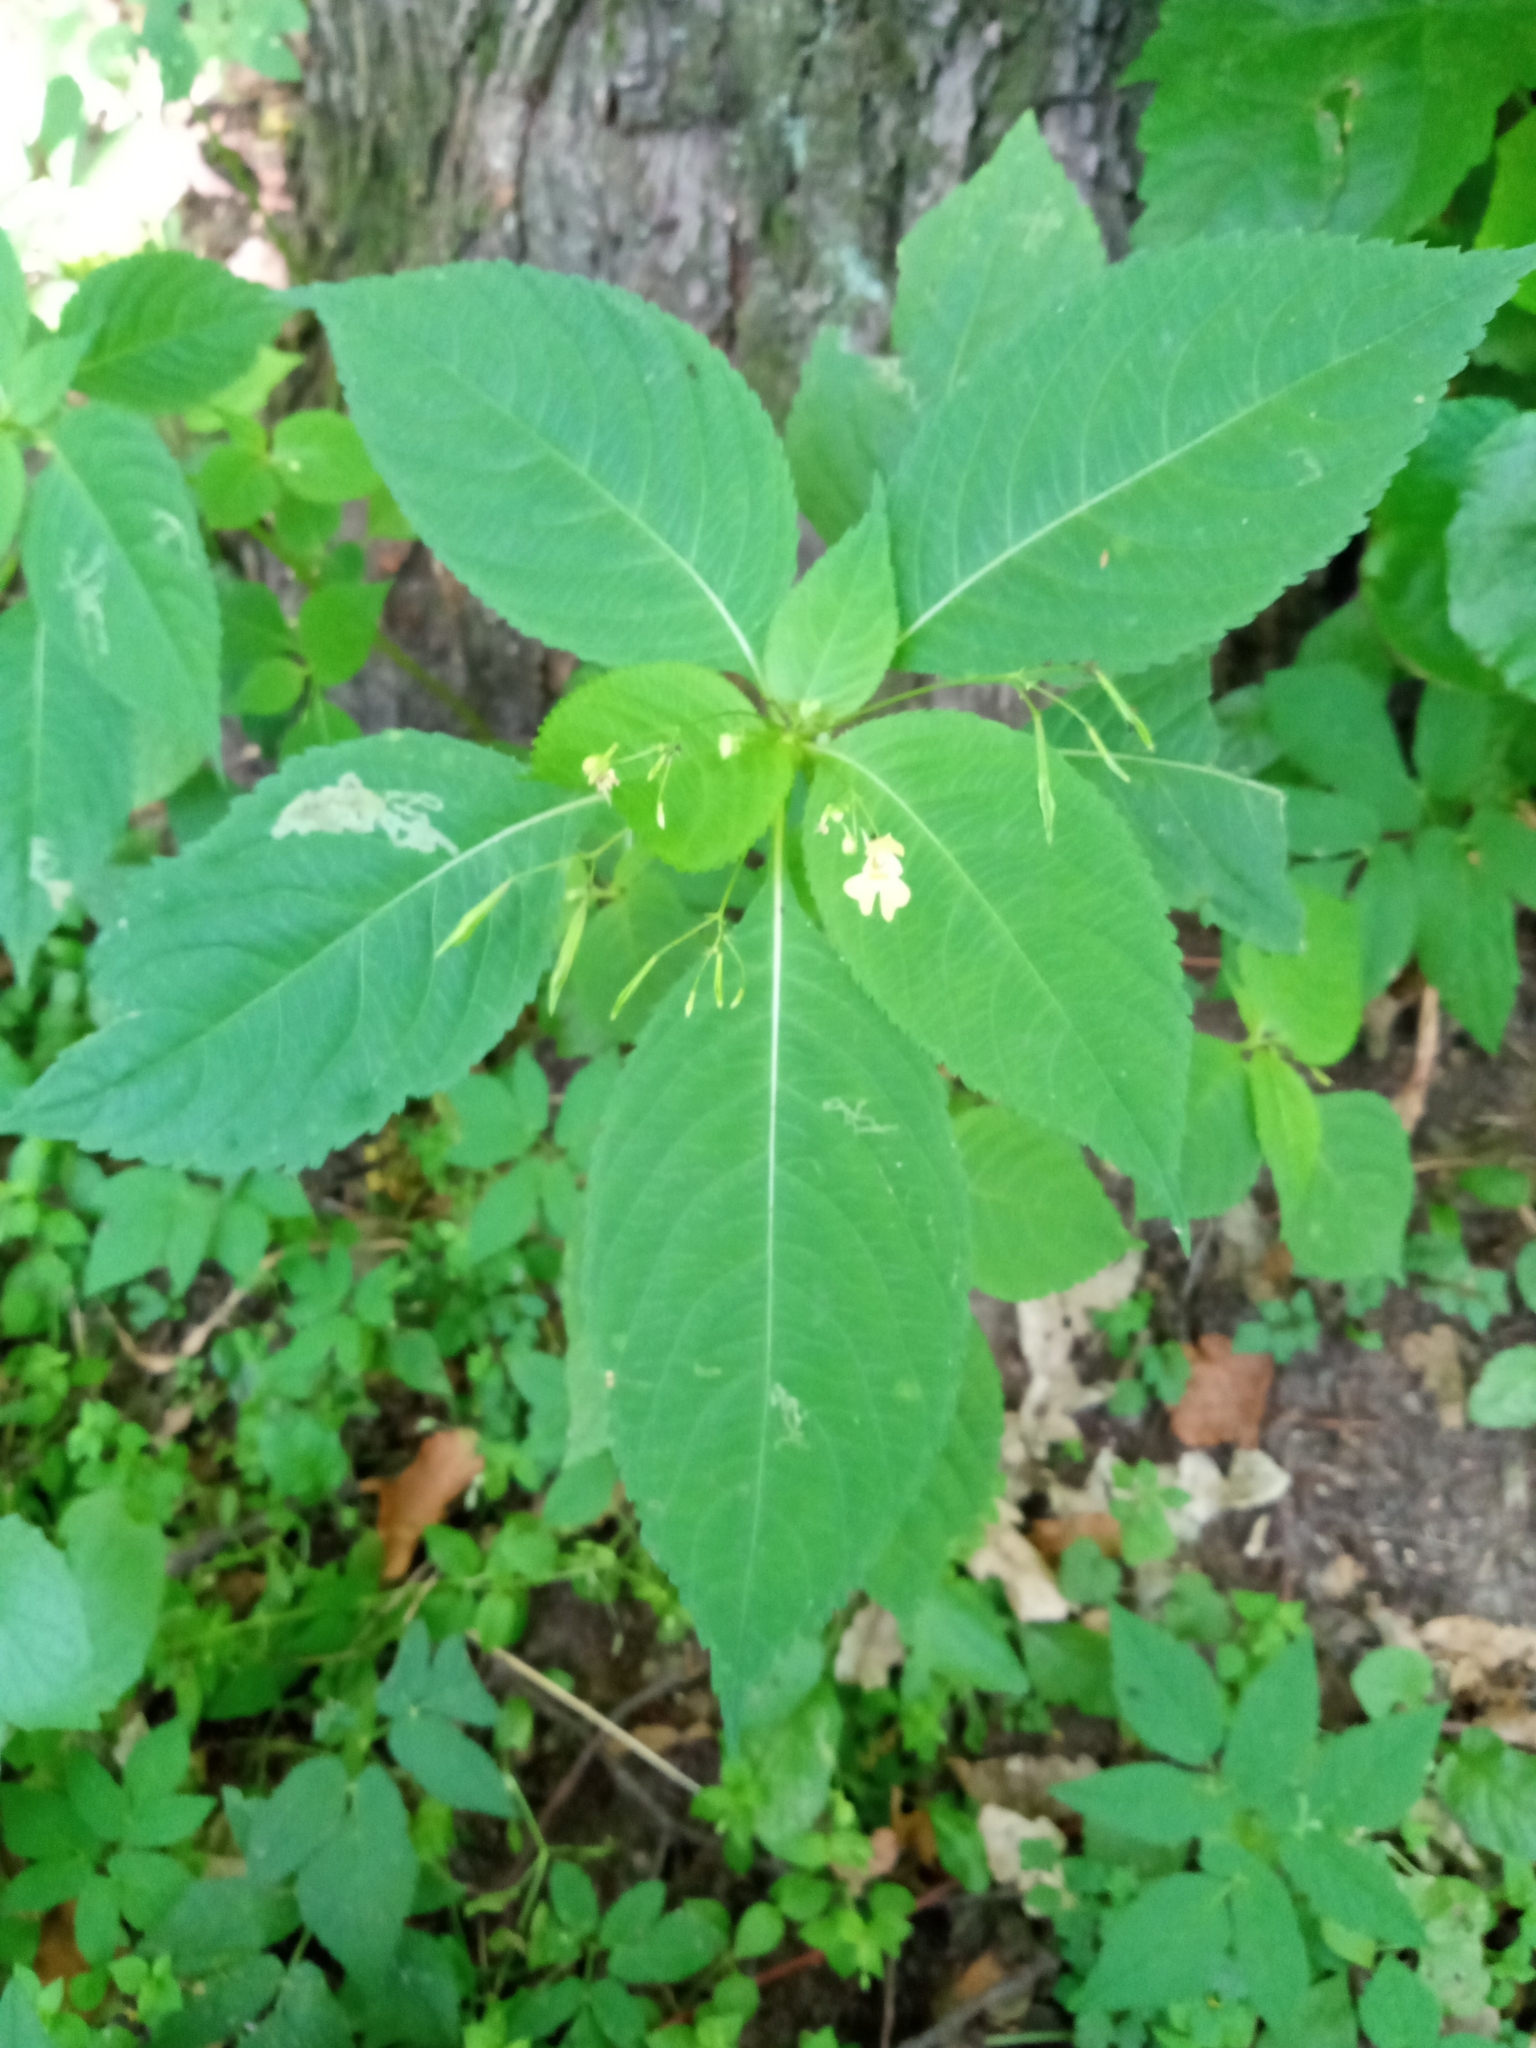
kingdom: Plantae
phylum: Tracheophyta
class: Magnoliopsida
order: Ericales
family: Balsaminaceae
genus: Impatiens
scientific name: Impatiens parviflora
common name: Small balsam
